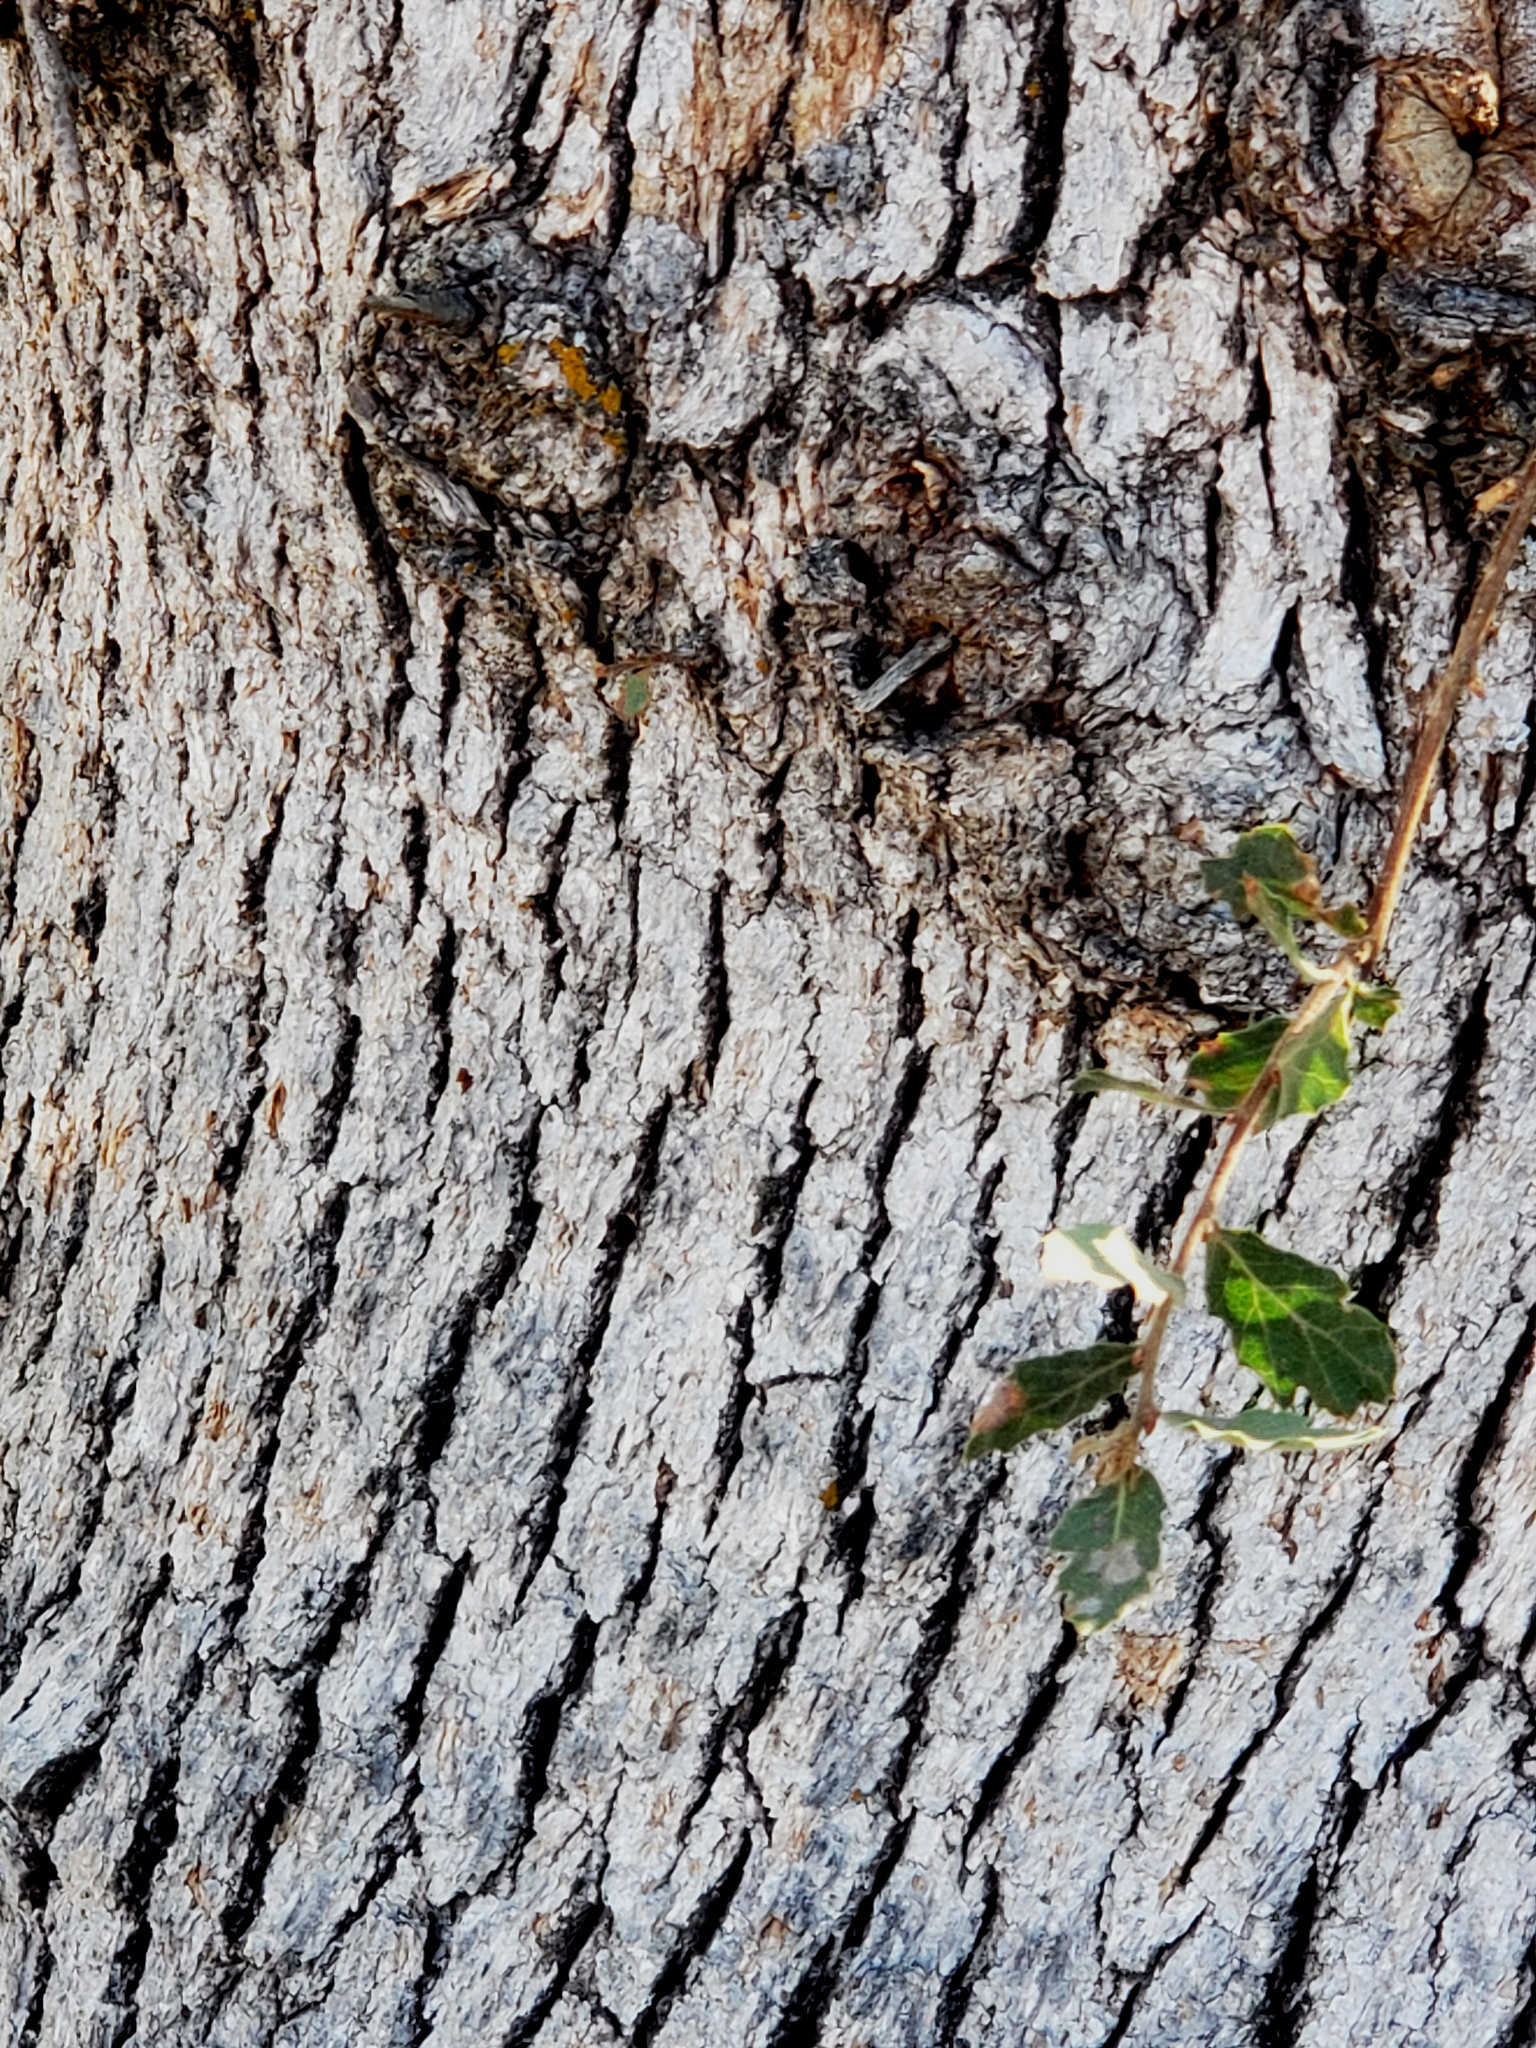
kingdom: Plantae
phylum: Tracheophyta
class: Magnoliopsida
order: Fagales
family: Fagaceae
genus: Quercus
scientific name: Quercus douglasii
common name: Blue oak
